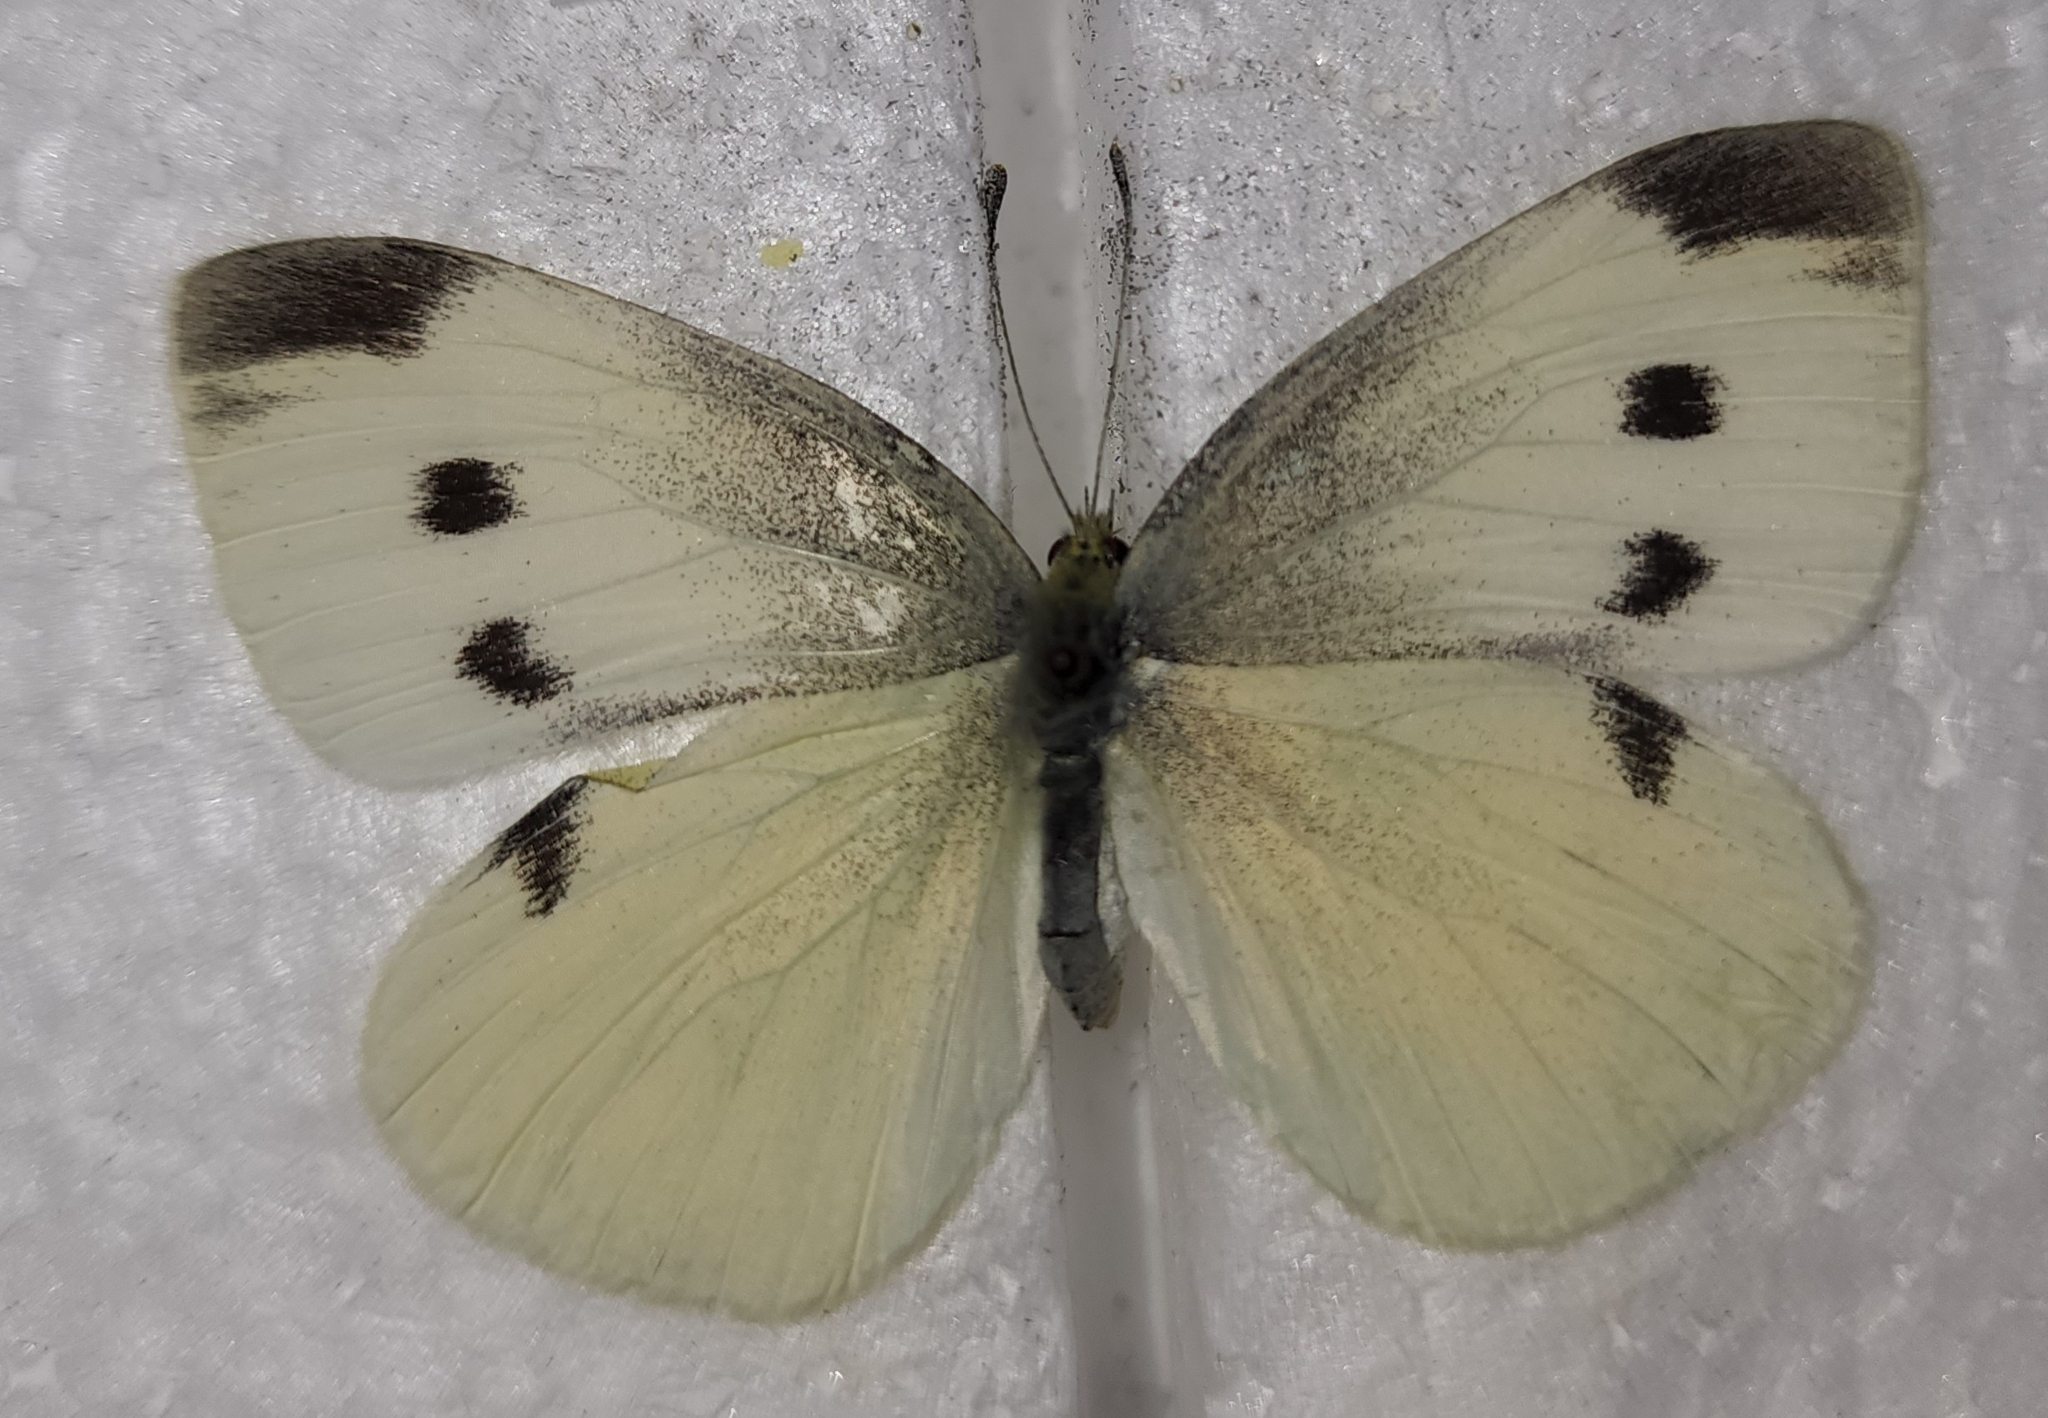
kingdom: Animalia
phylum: Arthropoda
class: Insecta
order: Lepidoptera
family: Pieridae
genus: Pieris
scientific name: Pieris rapae
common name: Small white
